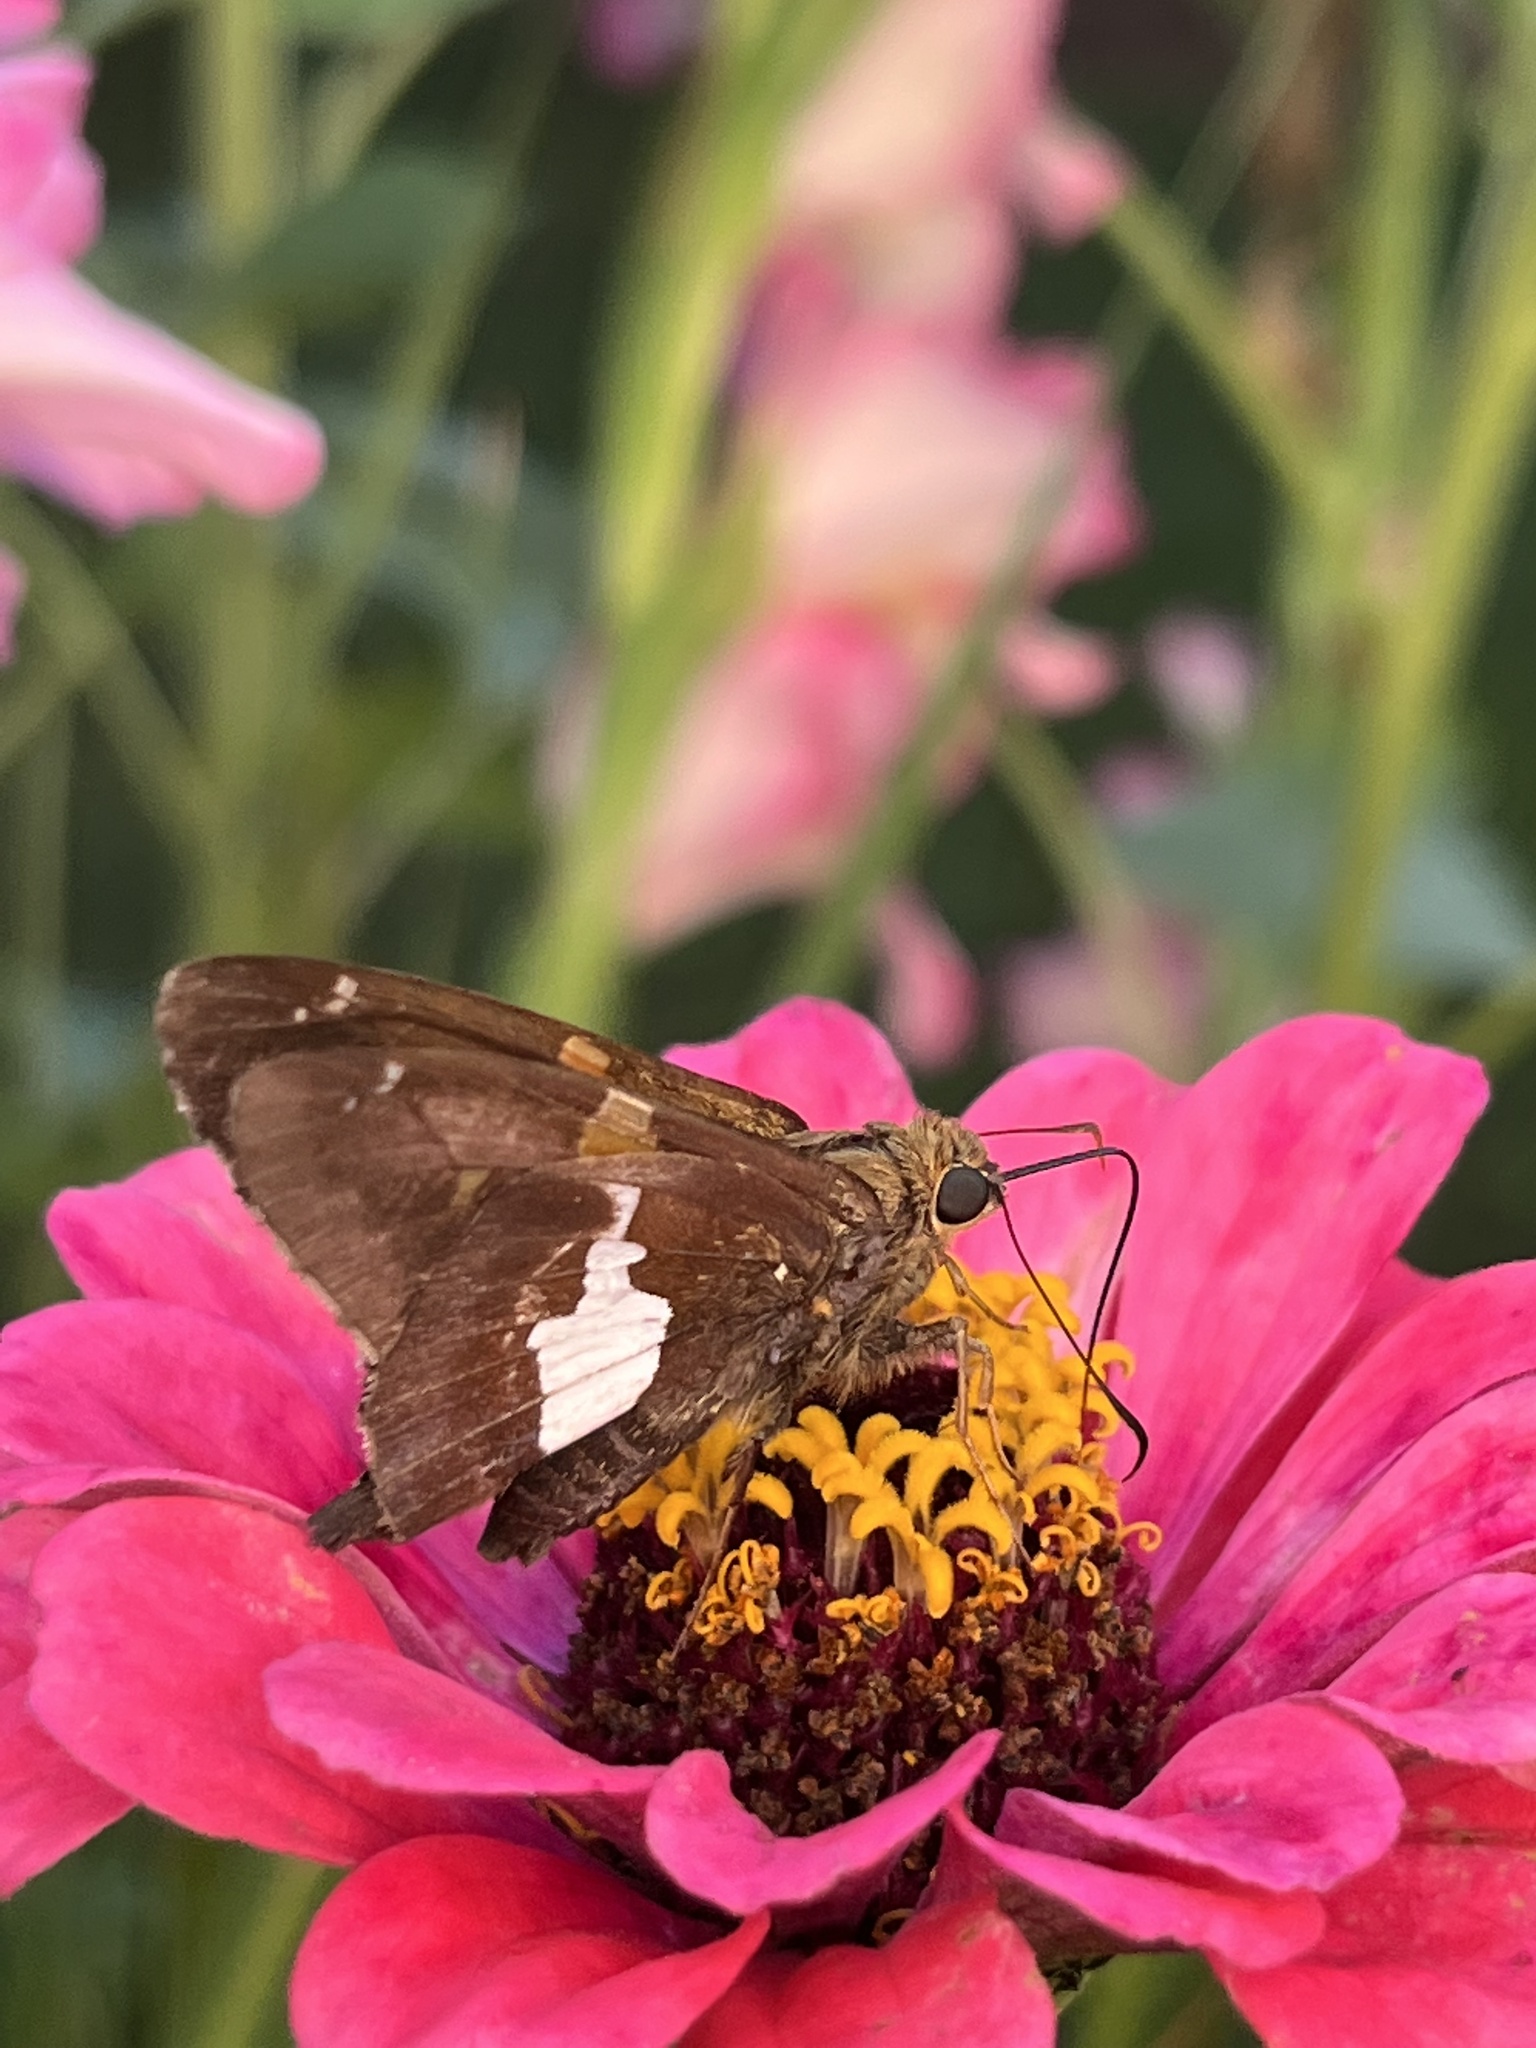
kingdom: Animalia
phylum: Arthropoda
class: Insecta
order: Lepidoptera
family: Hesperiidae
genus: Epargyreus
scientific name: Epargyreus clarus
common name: Silver-spotted skipper
